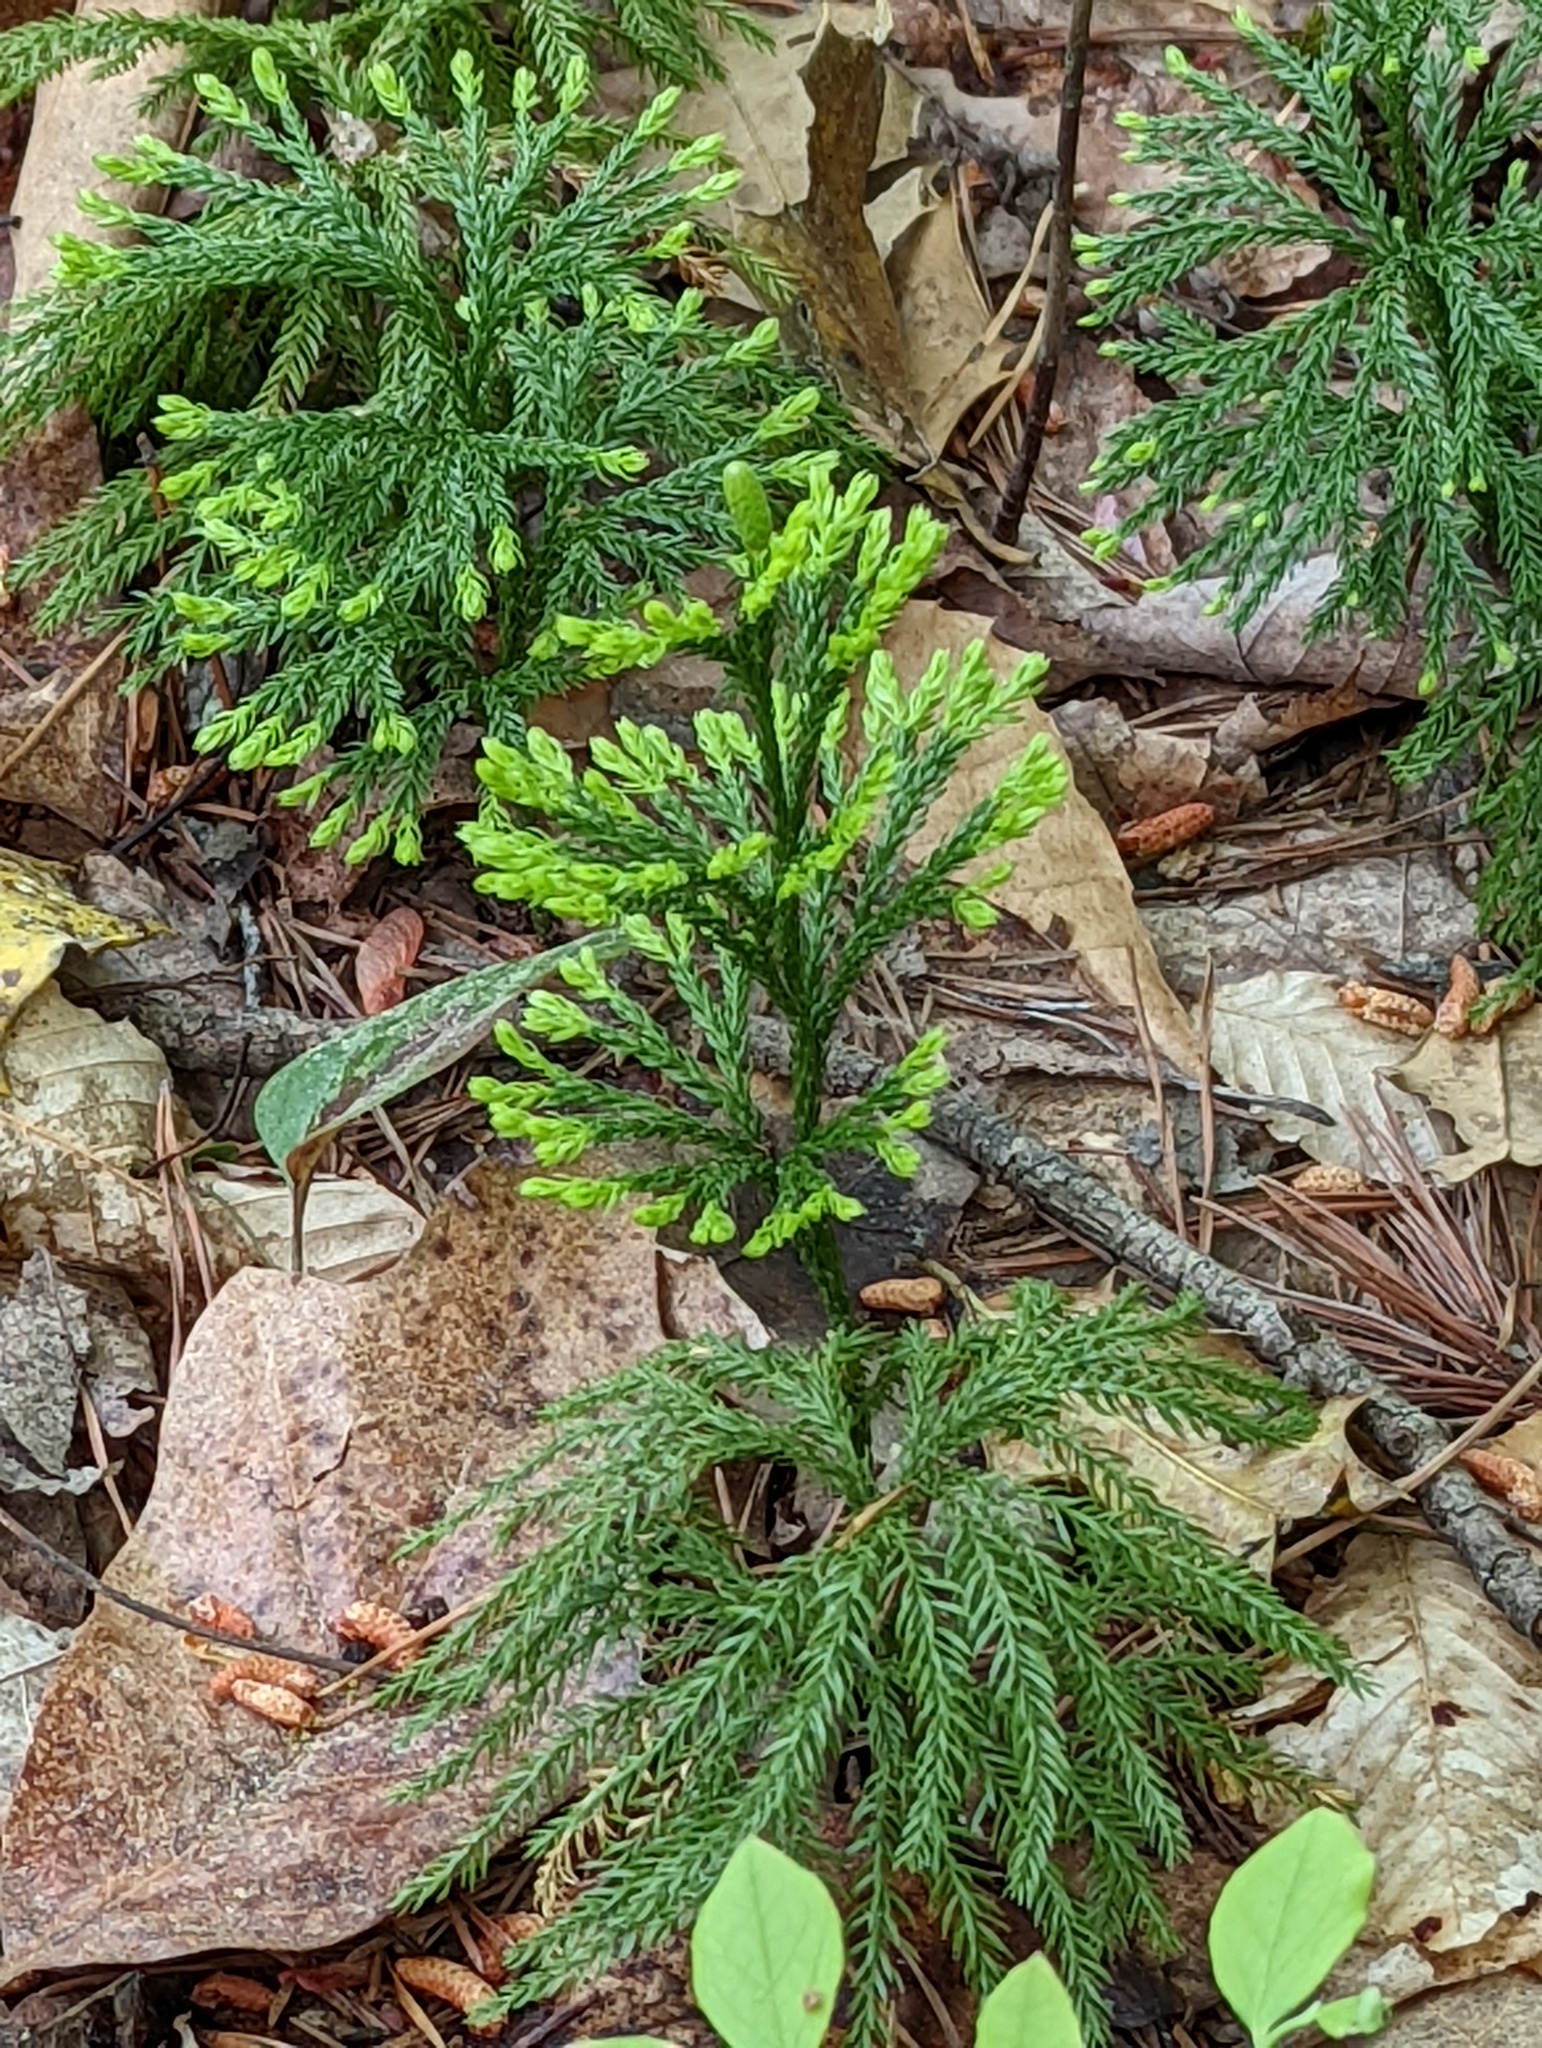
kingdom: Plantae
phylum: Tracheophyta
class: Lycopodiopsida
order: Lycopodiales
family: Lycopodiaceae
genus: Dendrolycopodium
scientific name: Dendrolycopodium obscurum
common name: Common ground-pine
